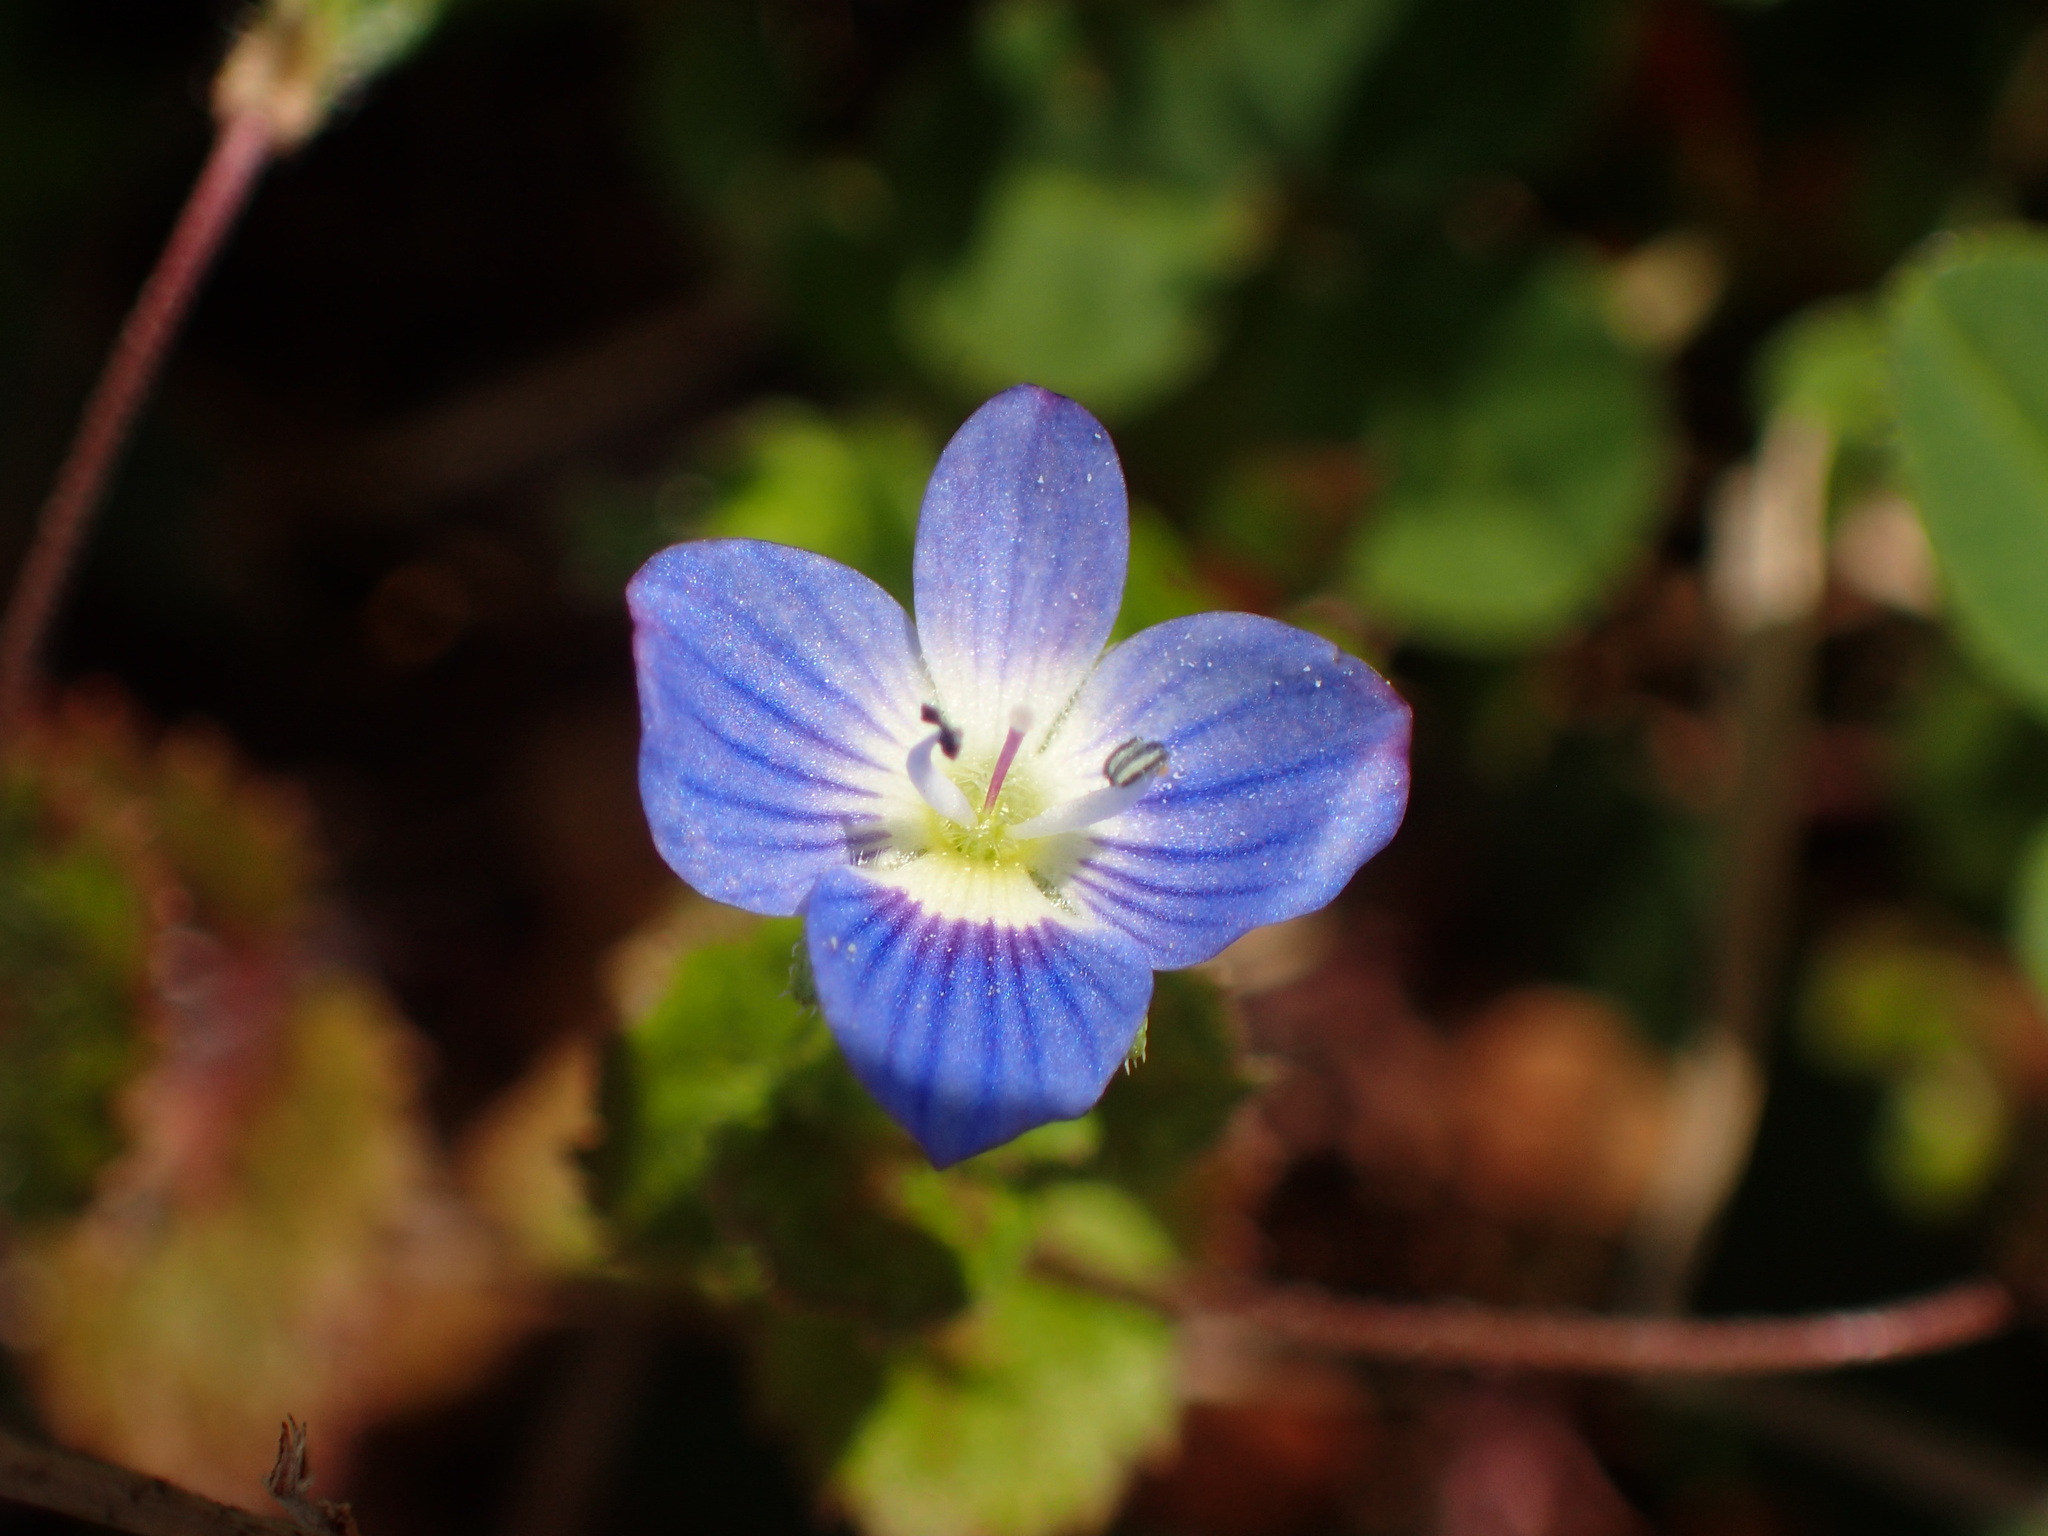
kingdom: Plantae
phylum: Tracheophyta
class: Magnoliopsida
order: Lamiales
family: Plantaginaceae
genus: Veronica
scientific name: Veronica persica
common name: Common field-speedwell
